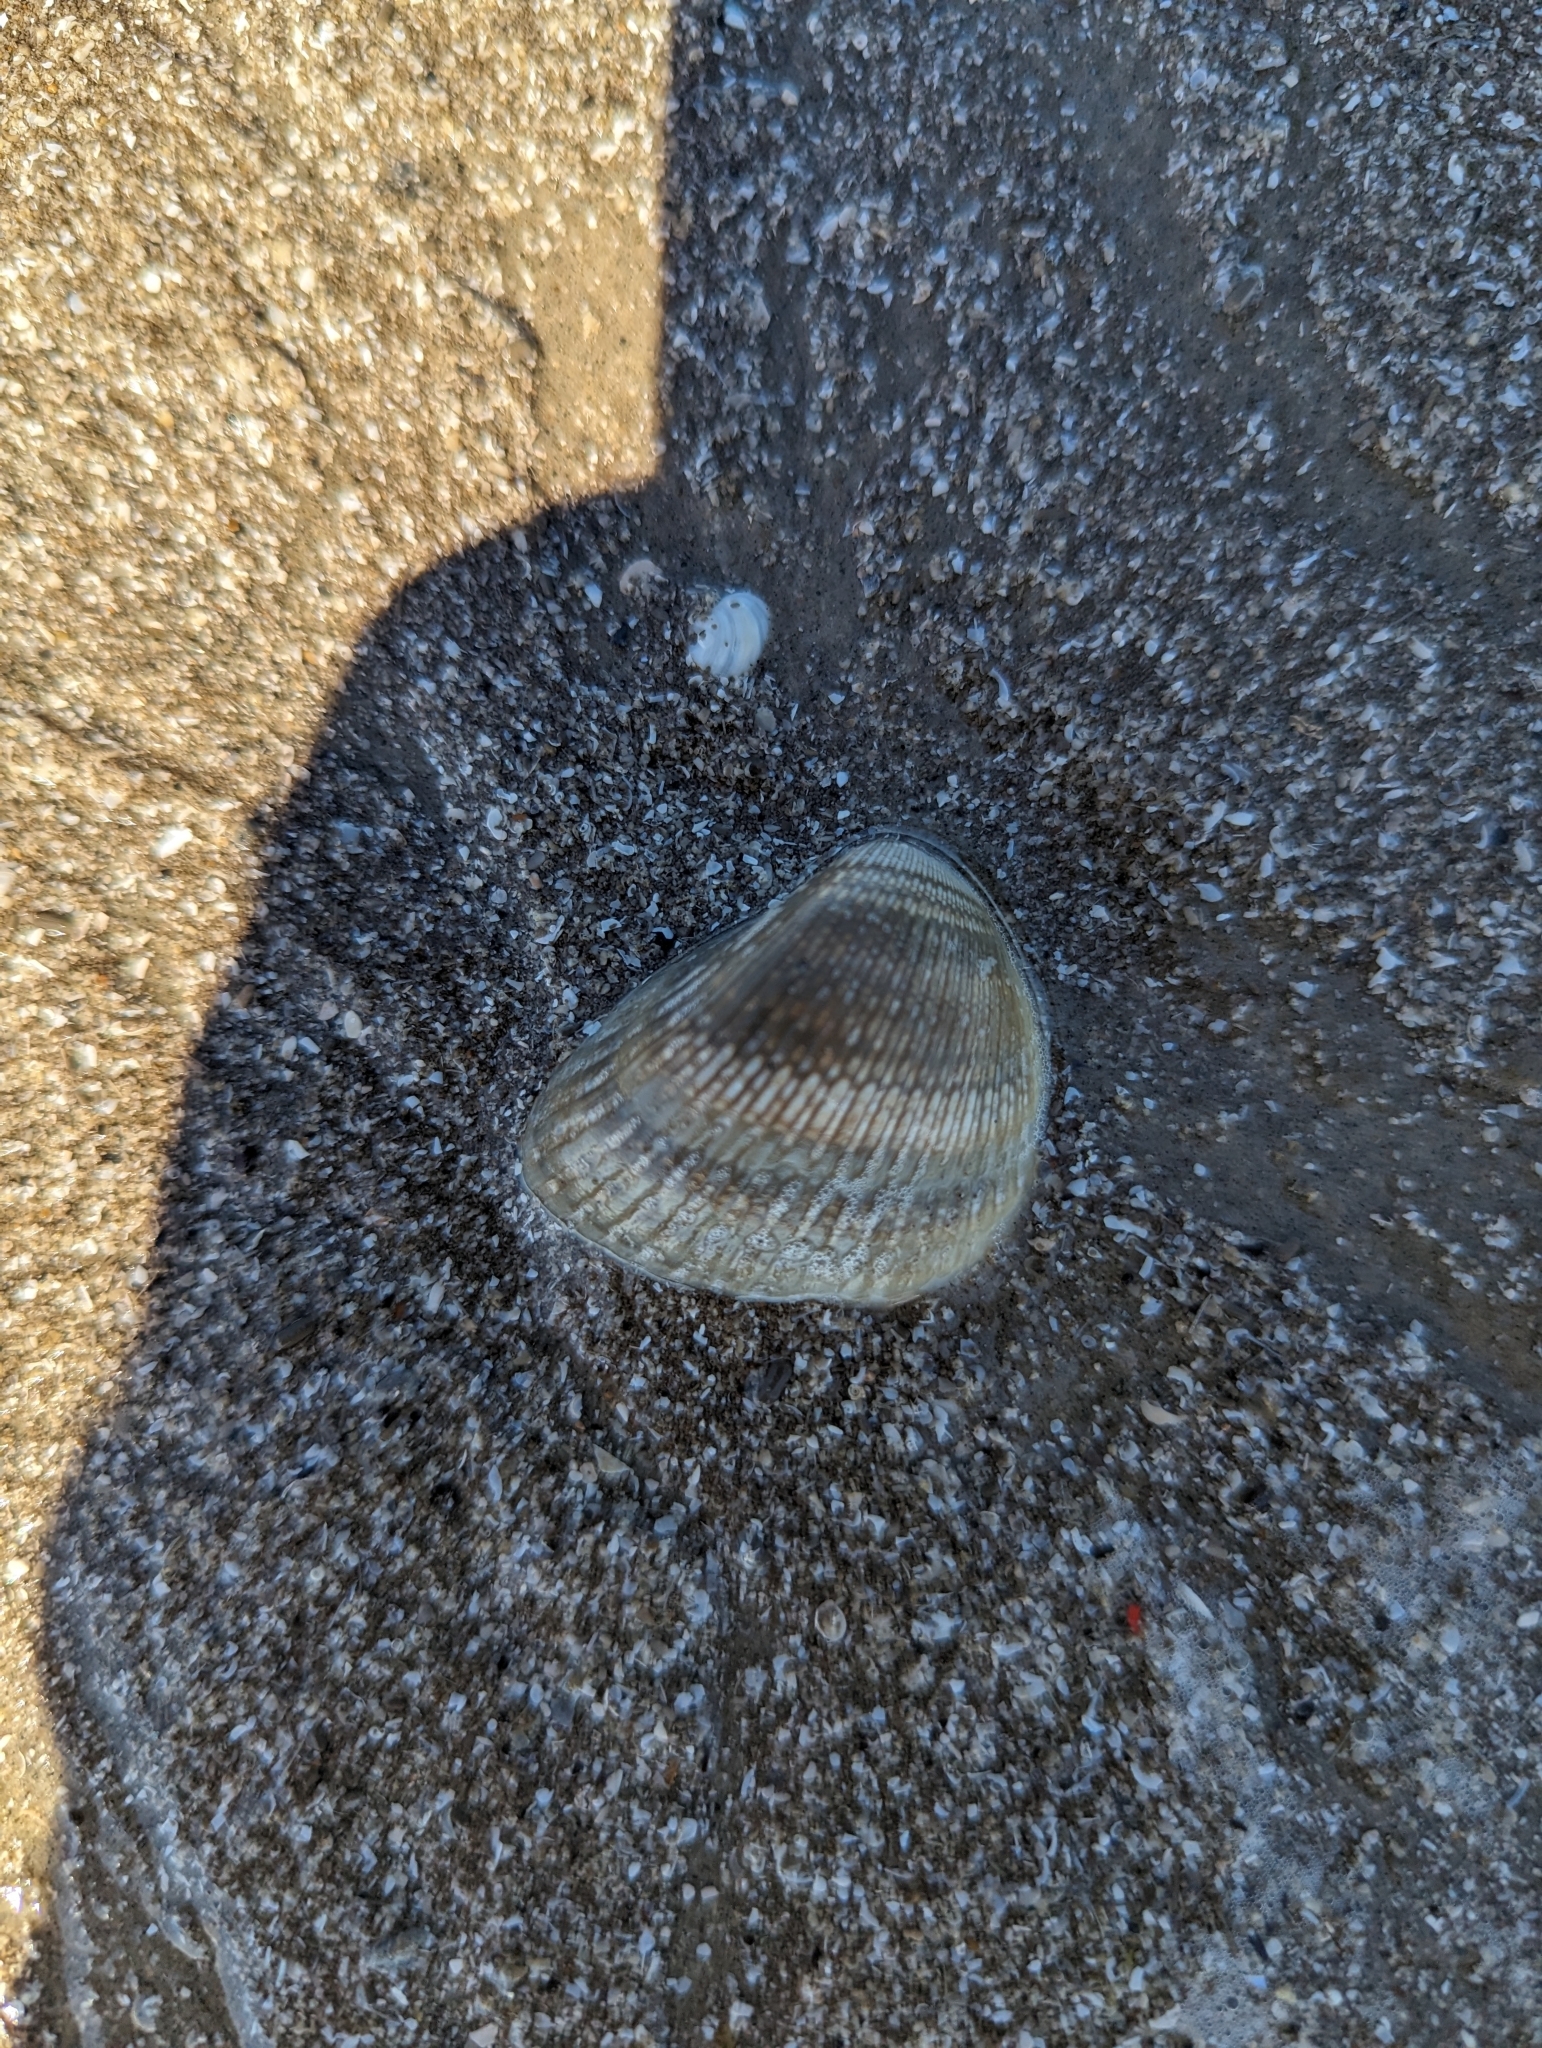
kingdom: Animalia
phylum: Mollusca
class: Bivalvia
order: Arcida
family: Noetiidae
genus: Noetia
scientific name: Noetia ponderosa
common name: Ponderous ark
